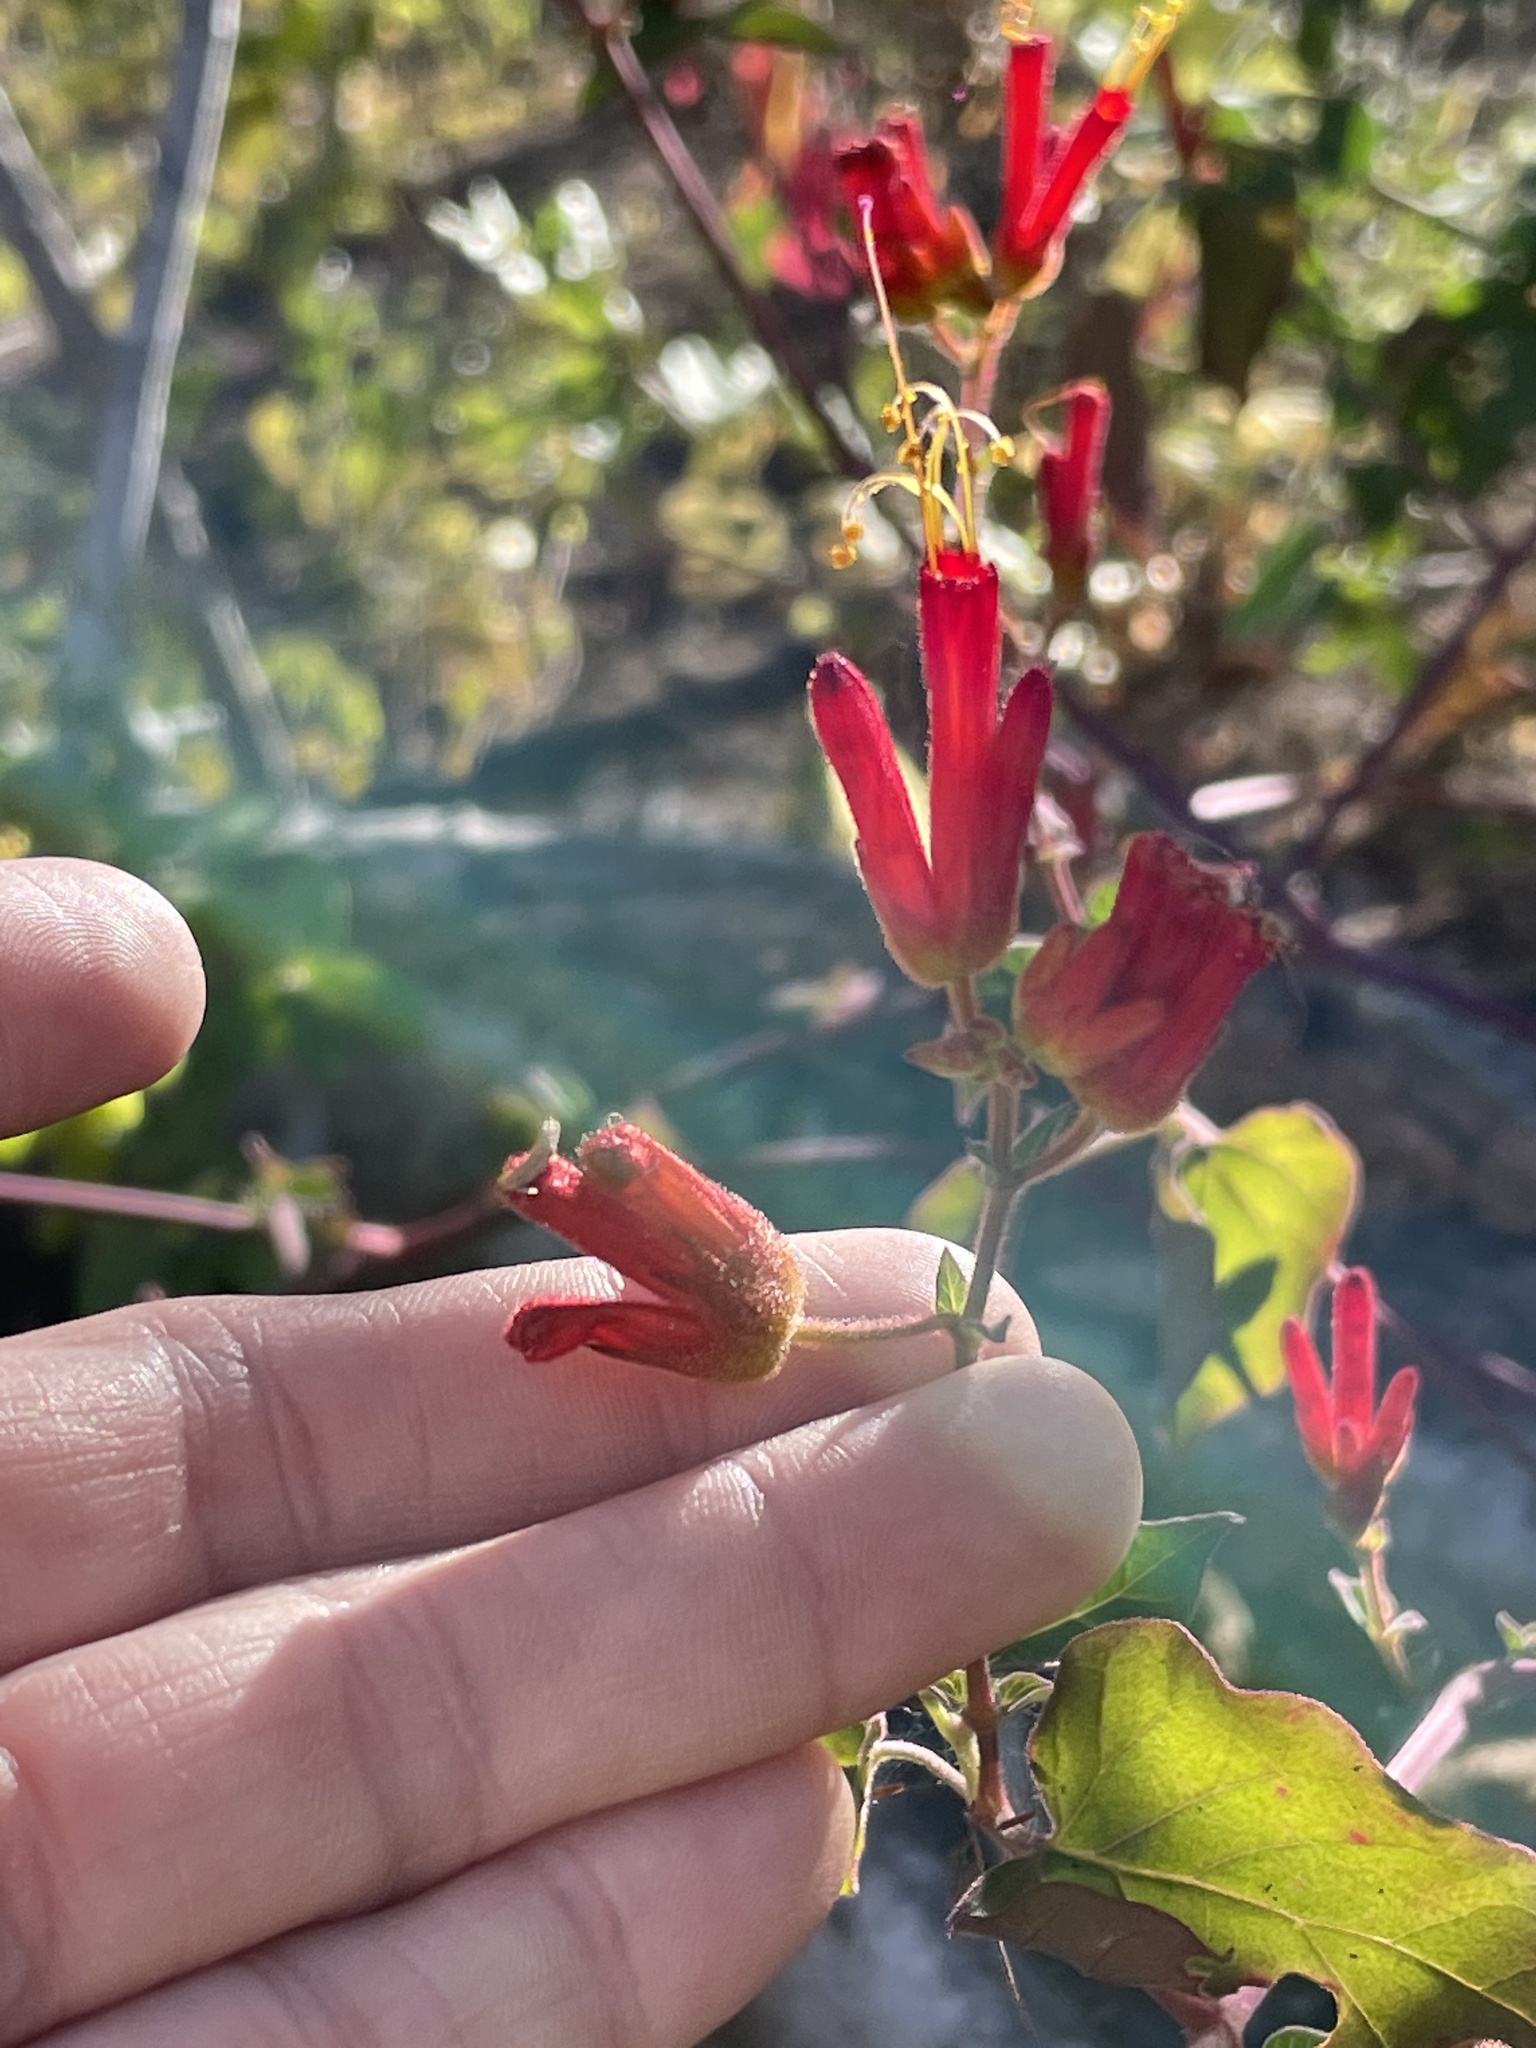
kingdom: Plantae
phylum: Tracheophyta
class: Magnoliopsida
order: Caryophyllales
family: Nyctaginaceae
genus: Mirabilis
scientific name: Mirabilis triflora
